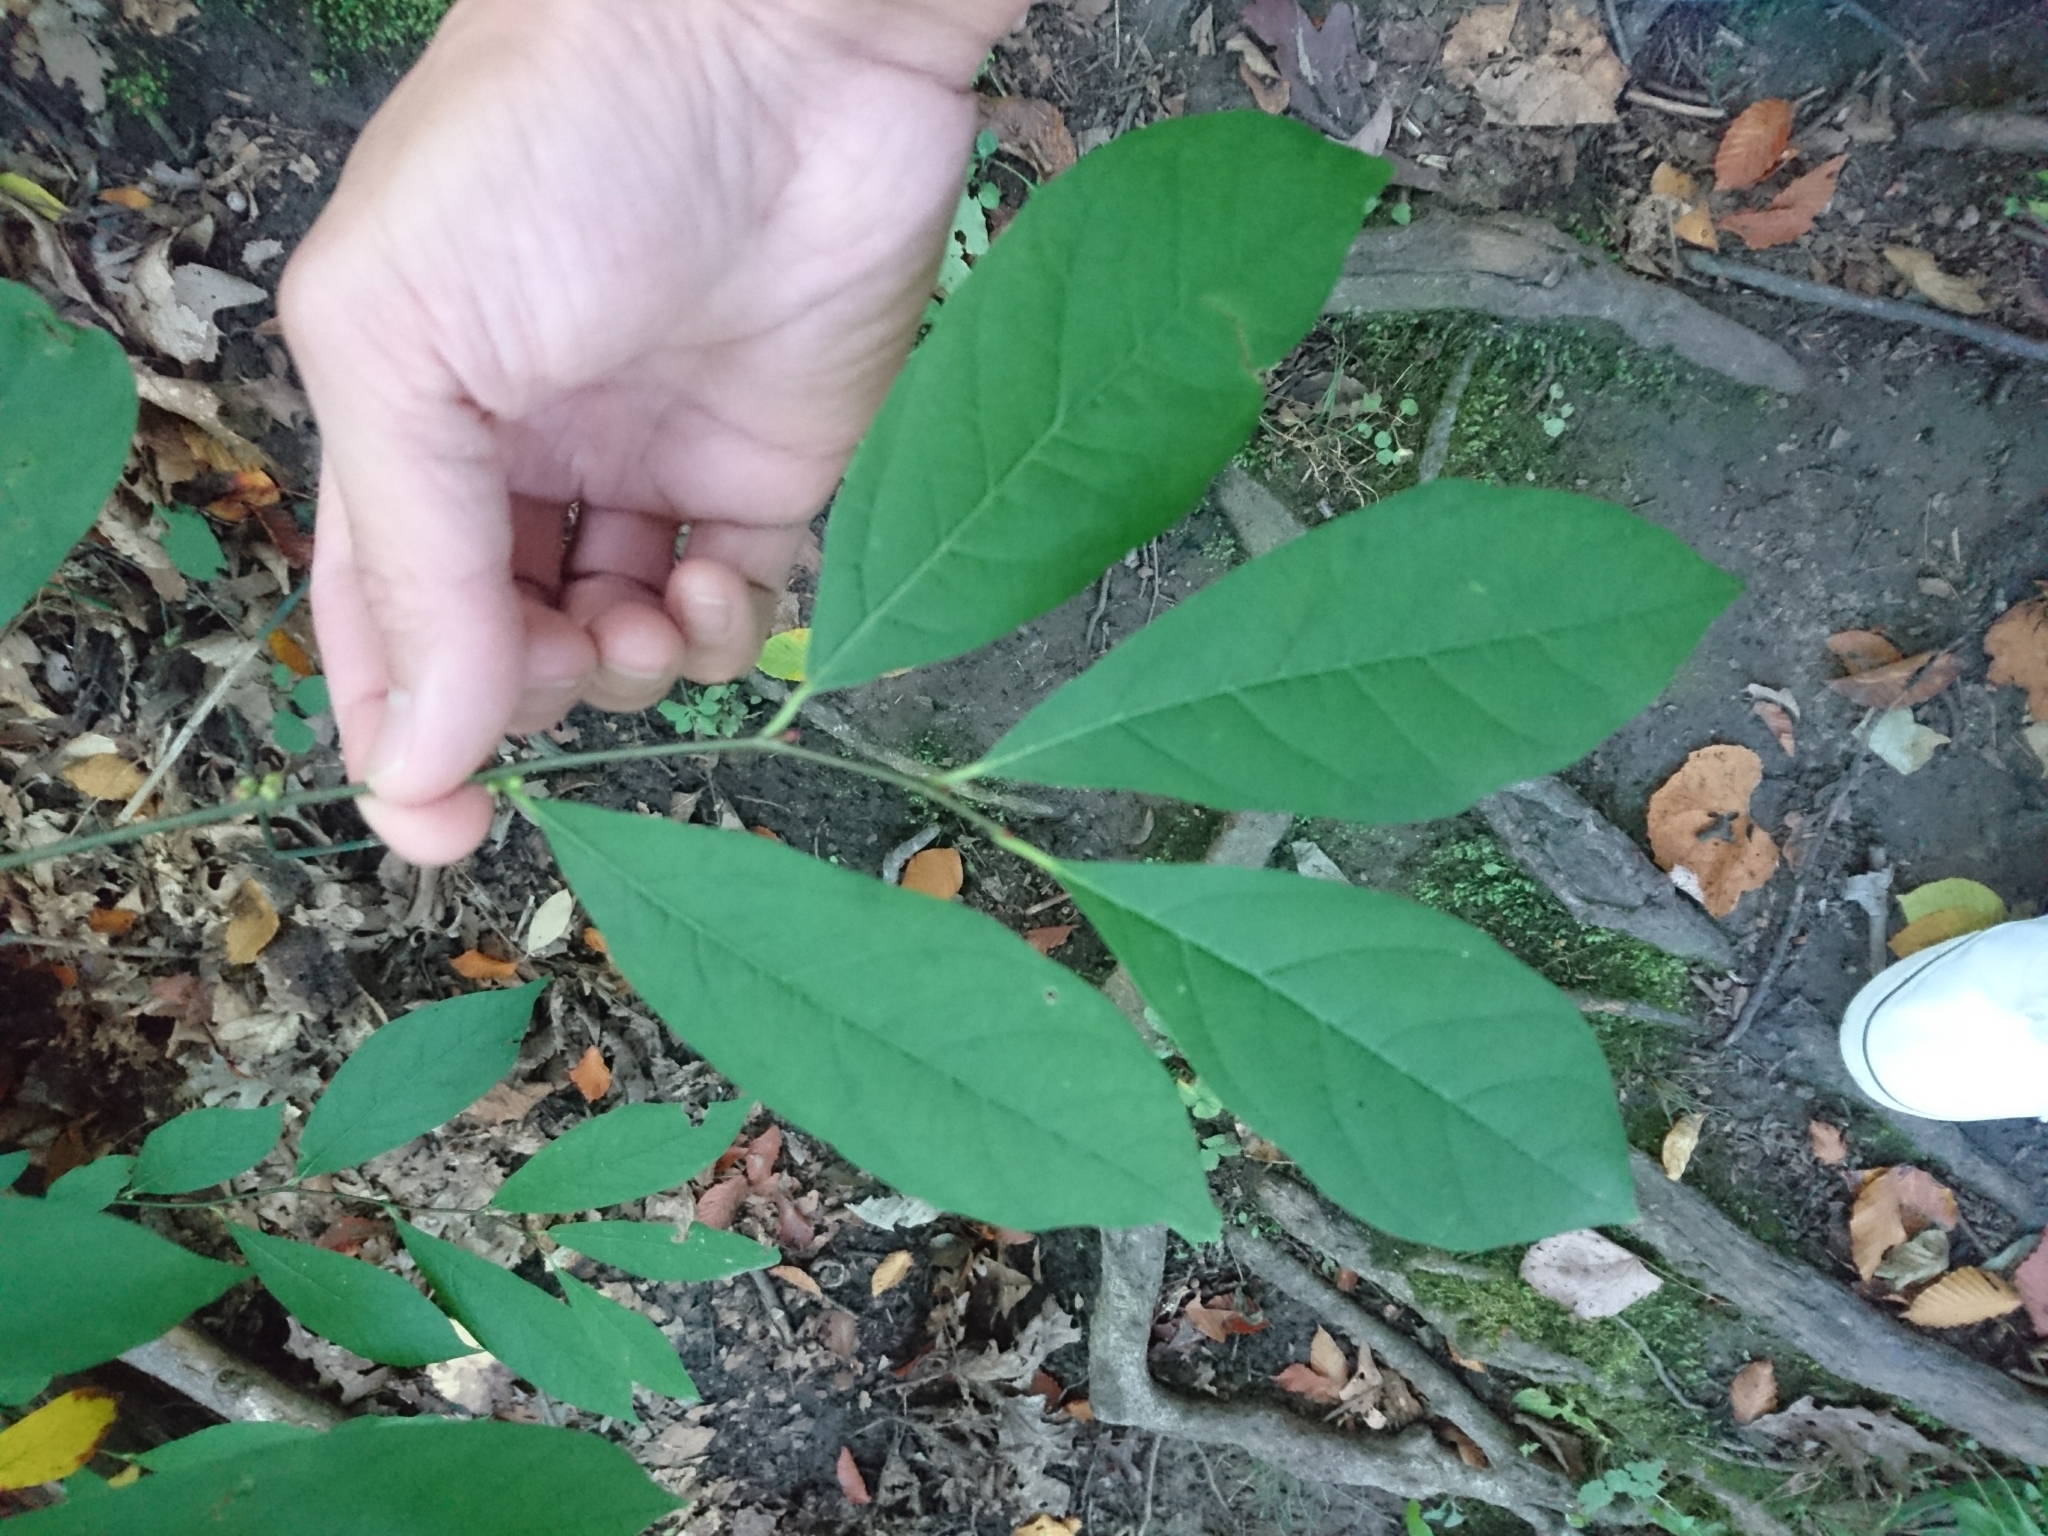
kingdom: Plantae
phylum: Tracheophyta
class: Magnoliopsida
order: Laurales
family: Lauraceae
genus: Lindera
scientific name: Lindera benzoin
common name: Spicebush
